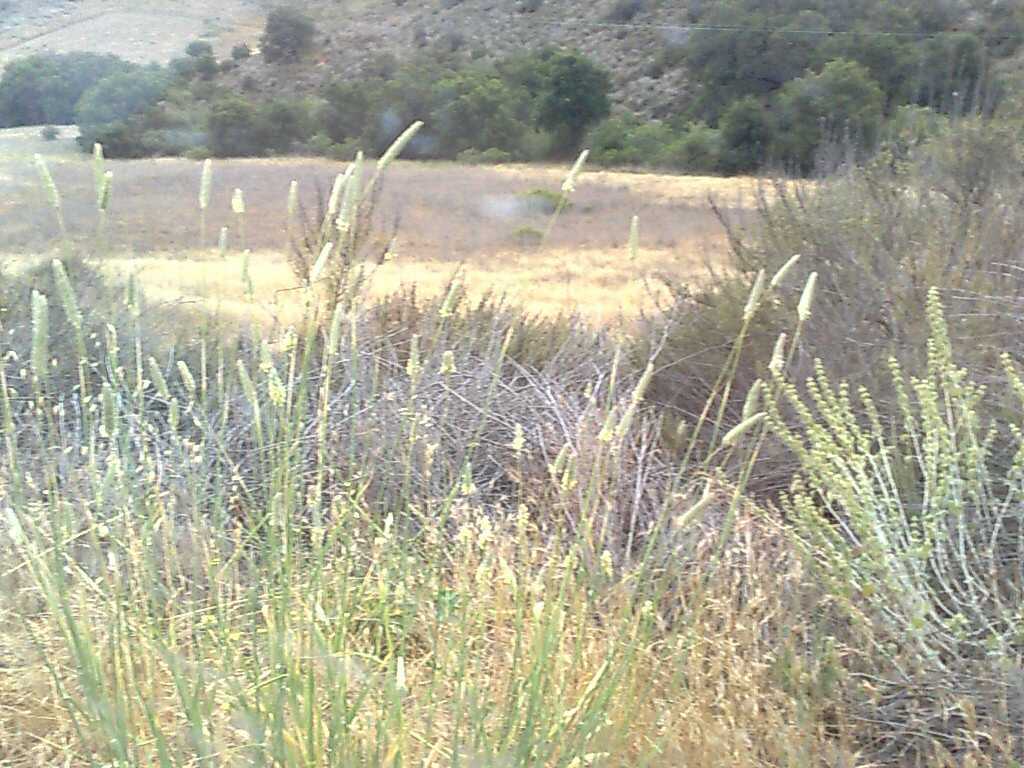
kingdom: Plantae
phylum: Tracheophyta
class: Liliopsida
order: Poales
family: Poaceae
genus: Phalaris
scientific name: Phalaris aquatica
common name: Bulbous canary-grass
